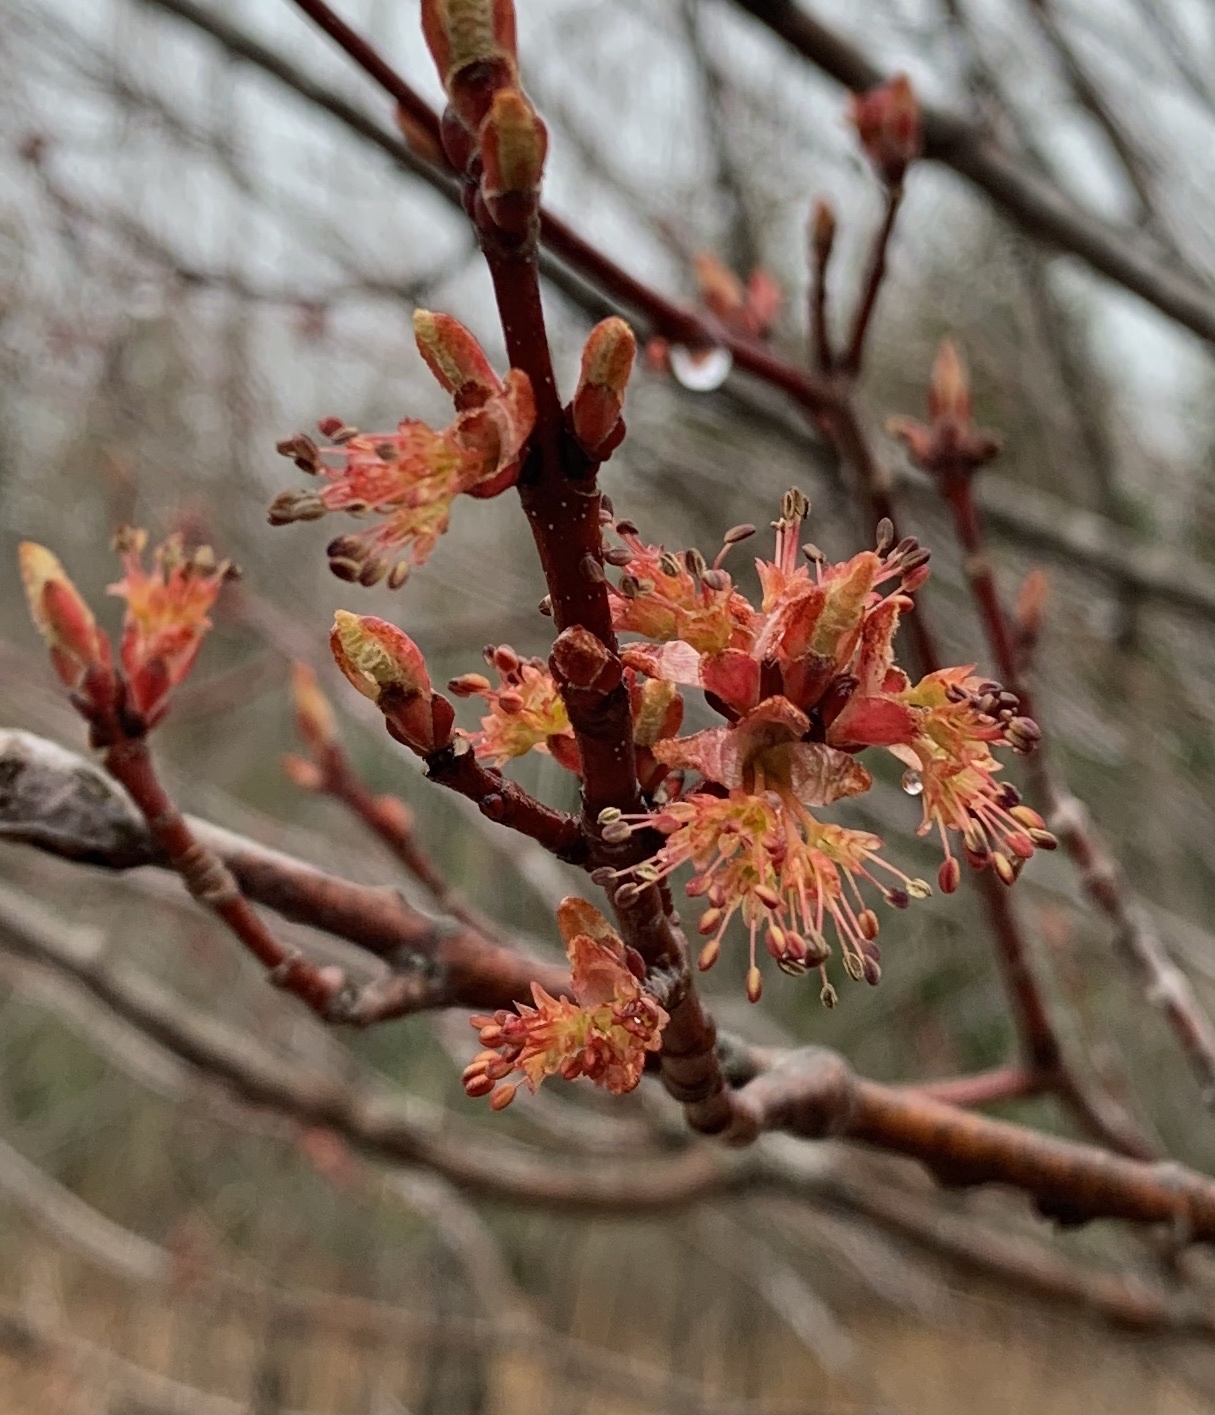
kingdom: Plantae
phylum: Tracheophyta
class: Magnoliopsida
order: Sapindales
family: Sapindaceae
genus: Acer
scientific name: Acer rubrum
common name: Red maple
